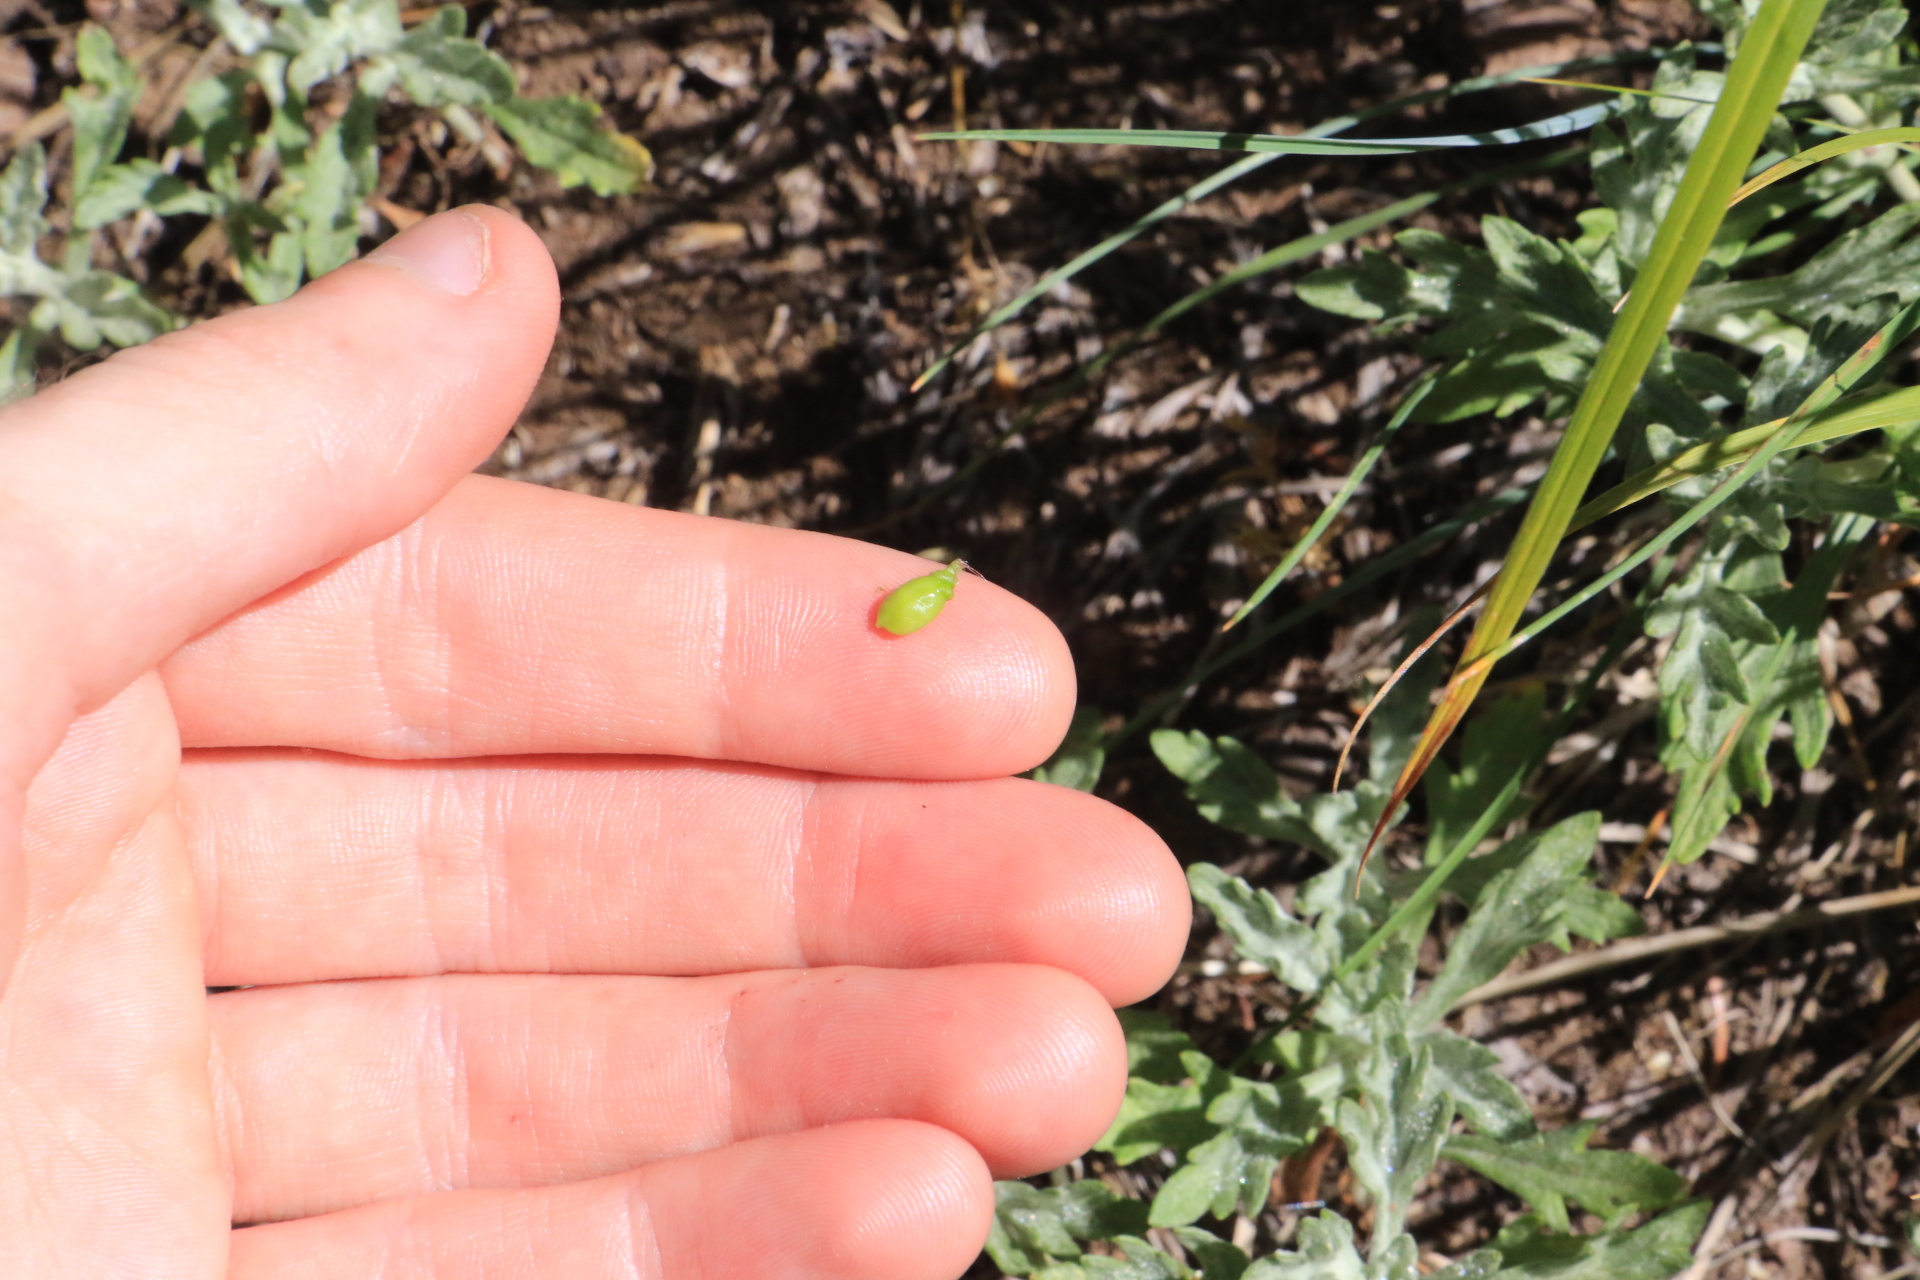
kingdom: Plantae
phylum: Tracheophyta
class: Magnoliopsida
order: Lamiales
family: Orobanchaceae
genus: Castilleja
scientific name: Castilleja hispida
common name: Bristly paintbrush
